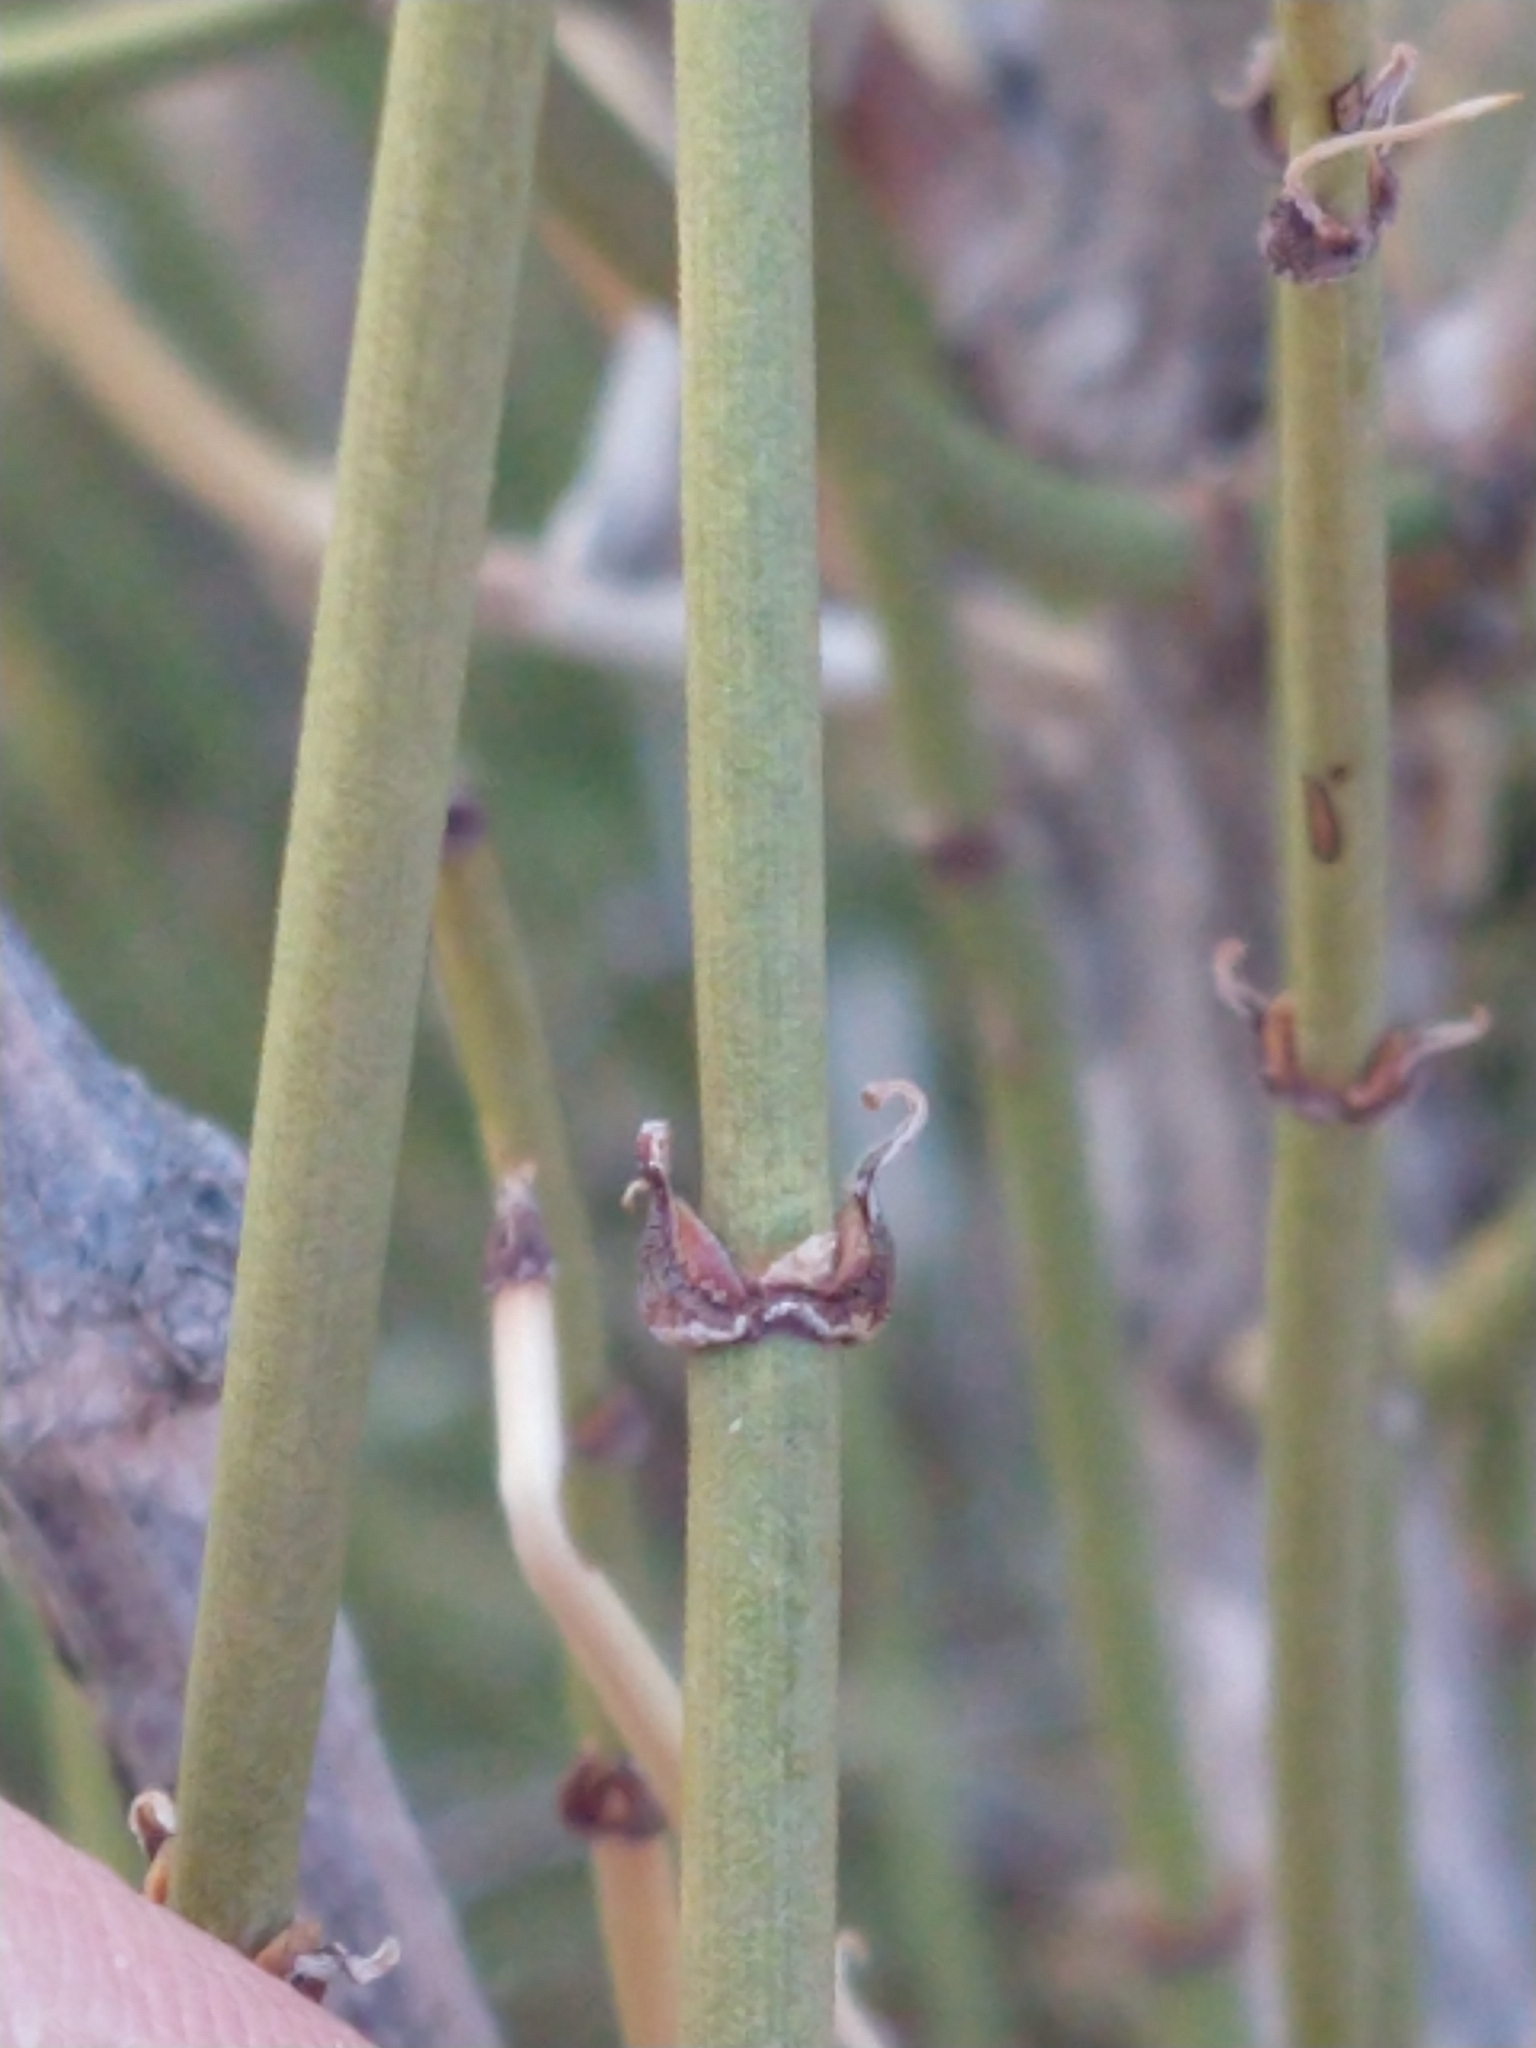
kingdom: Plantae
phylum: Tracheophyta
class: Gnetopsida
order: Ephedrales
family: Ephedraceae
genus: Ephedra
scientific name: Ephedra viridis
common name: Green ephedra
